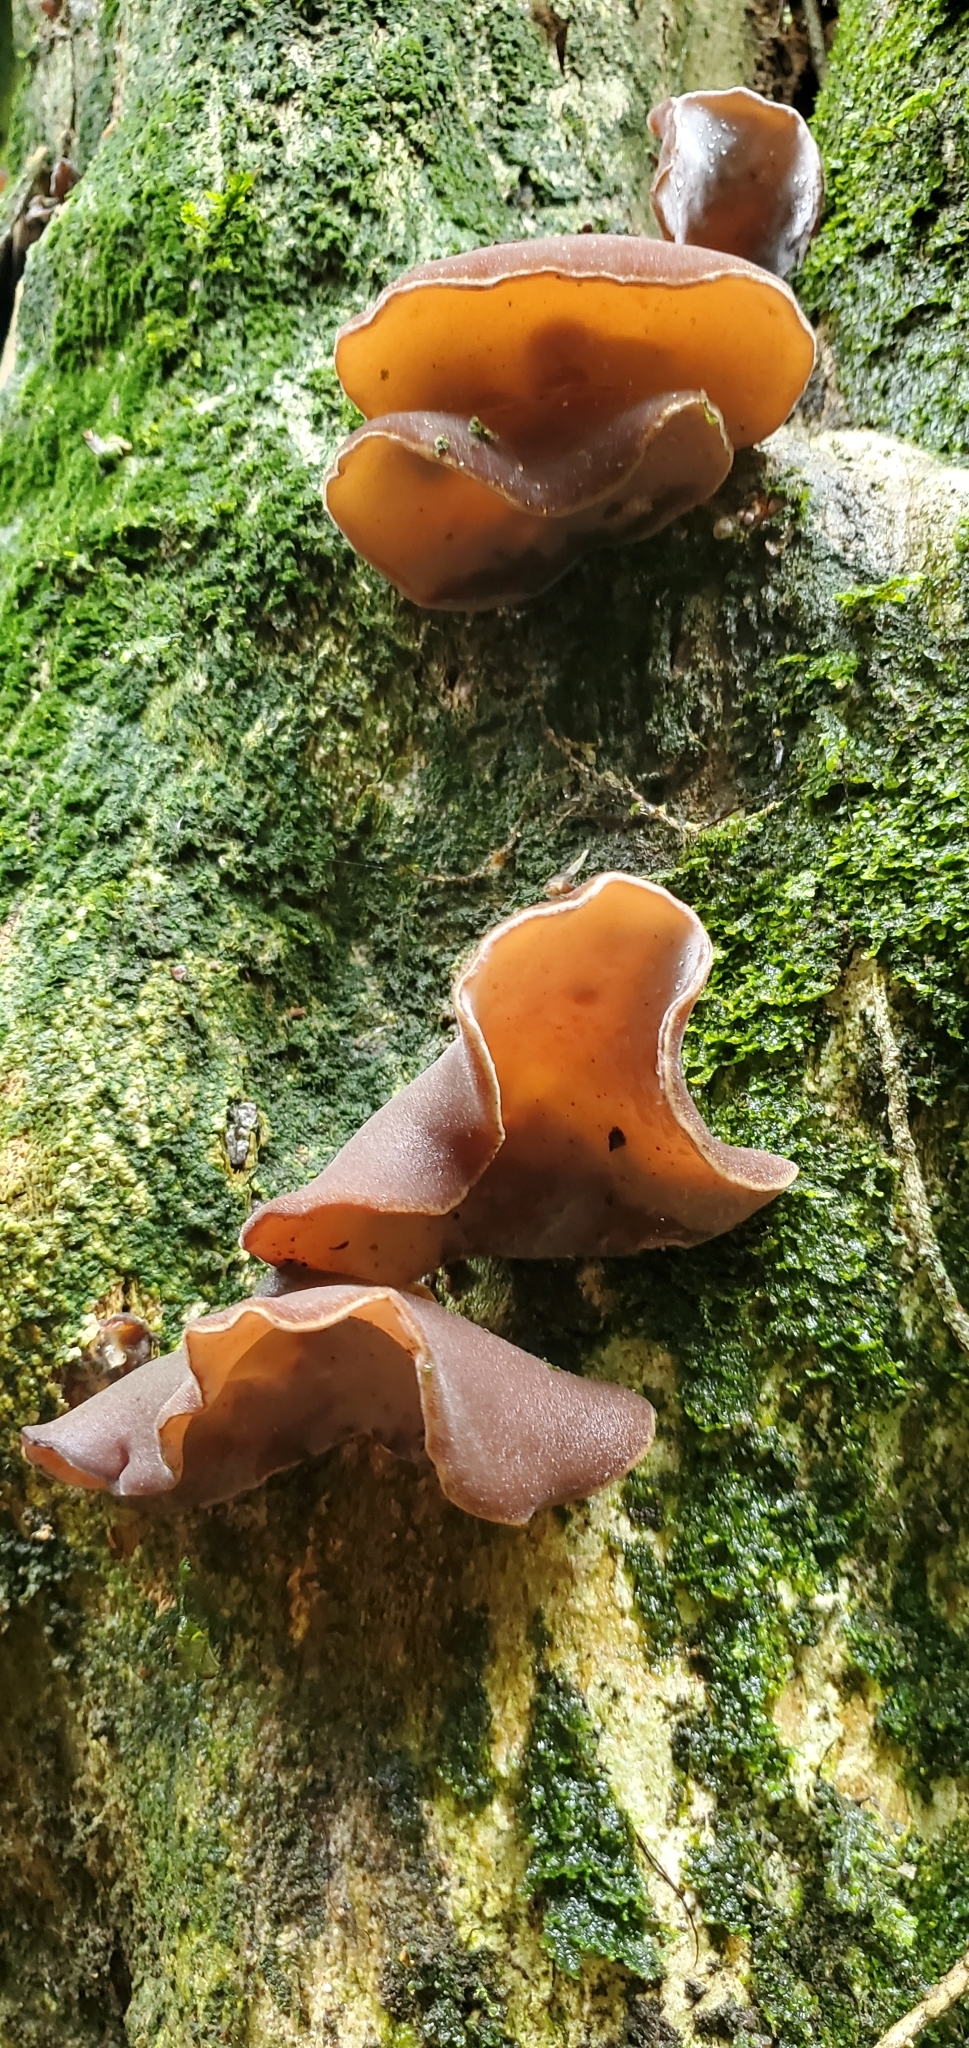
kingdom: Fungi
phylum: Basidiomycota
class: Agaricomycetes
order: Auriculariales
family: Auriculariaceae
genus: Auricularia
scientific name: Auricularia cornea
